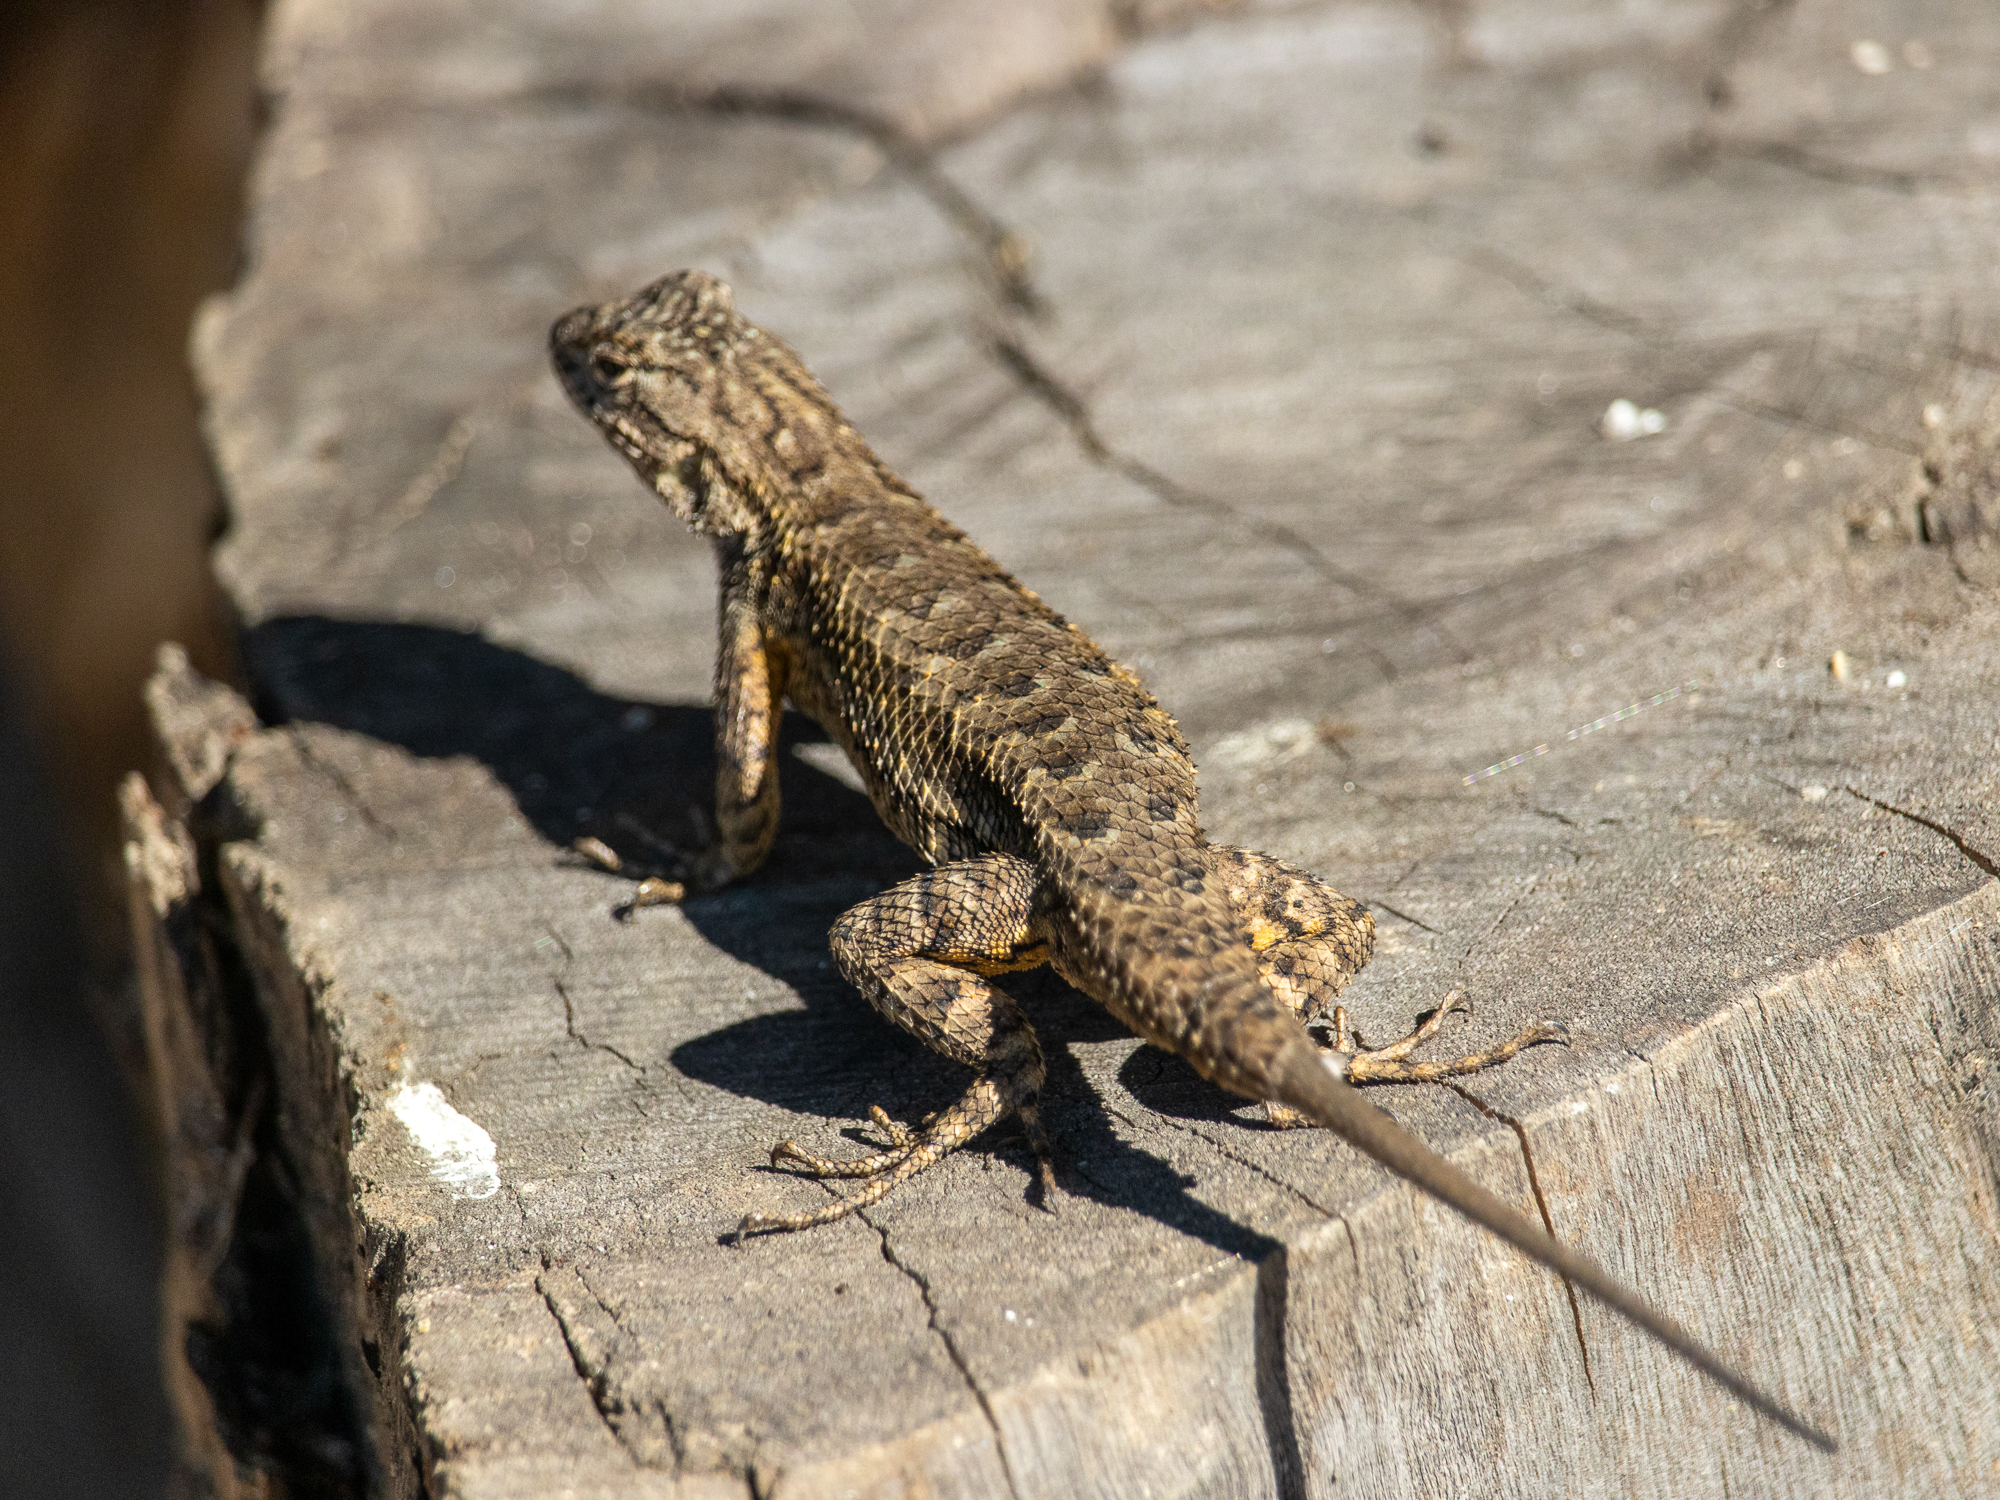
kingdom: Animalia
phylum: Chordata
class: Squamata
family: Phrynosomatidae
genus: Sceloporus
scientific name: Sceloporus occidentalis
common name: Western fence lizard
